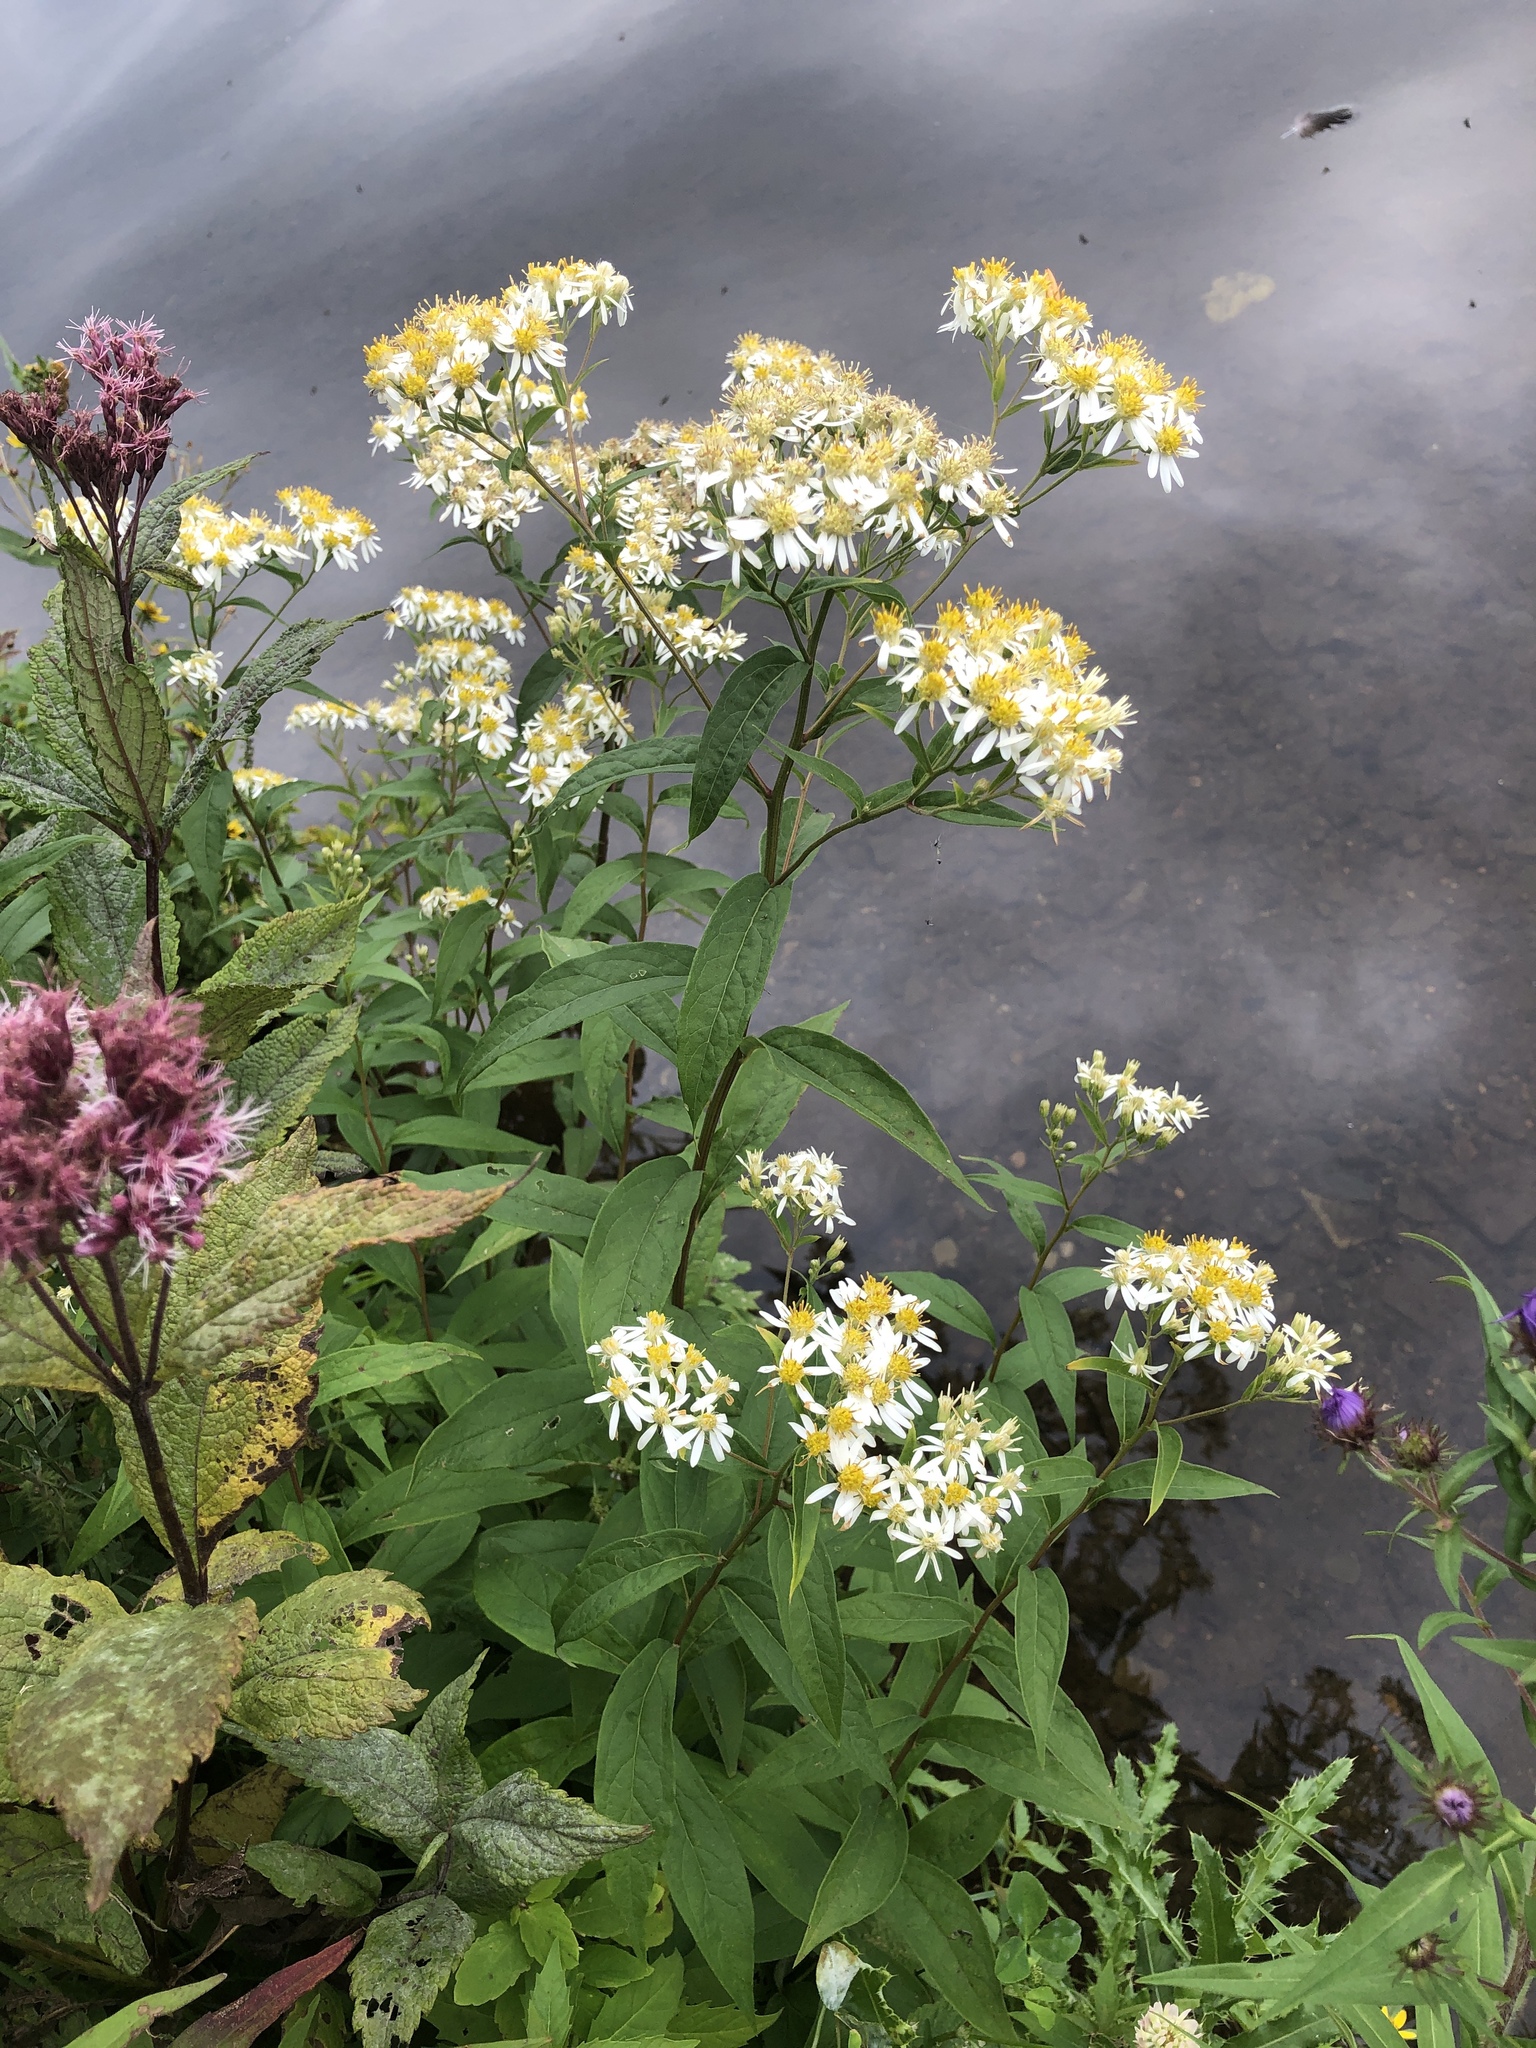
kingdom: Plantae
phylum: Tracheophyta
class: Magnoliopsida
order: Asterales
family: Asteraceae
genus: Doellingeria
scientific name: Doellingeria umbellata
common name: Flat-top white aster
